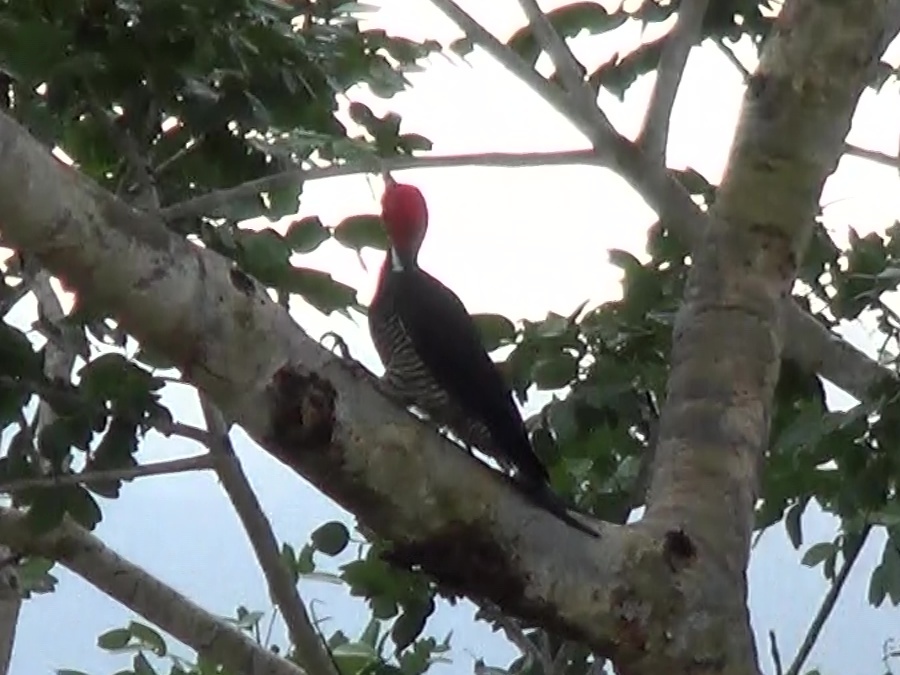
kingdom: Animalia
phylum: Chordata
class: Aves
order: Piciformes
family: Picidae
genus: Campephilus
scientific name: Campephilus melanoleucos
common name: Crimson-crested woodpecker
